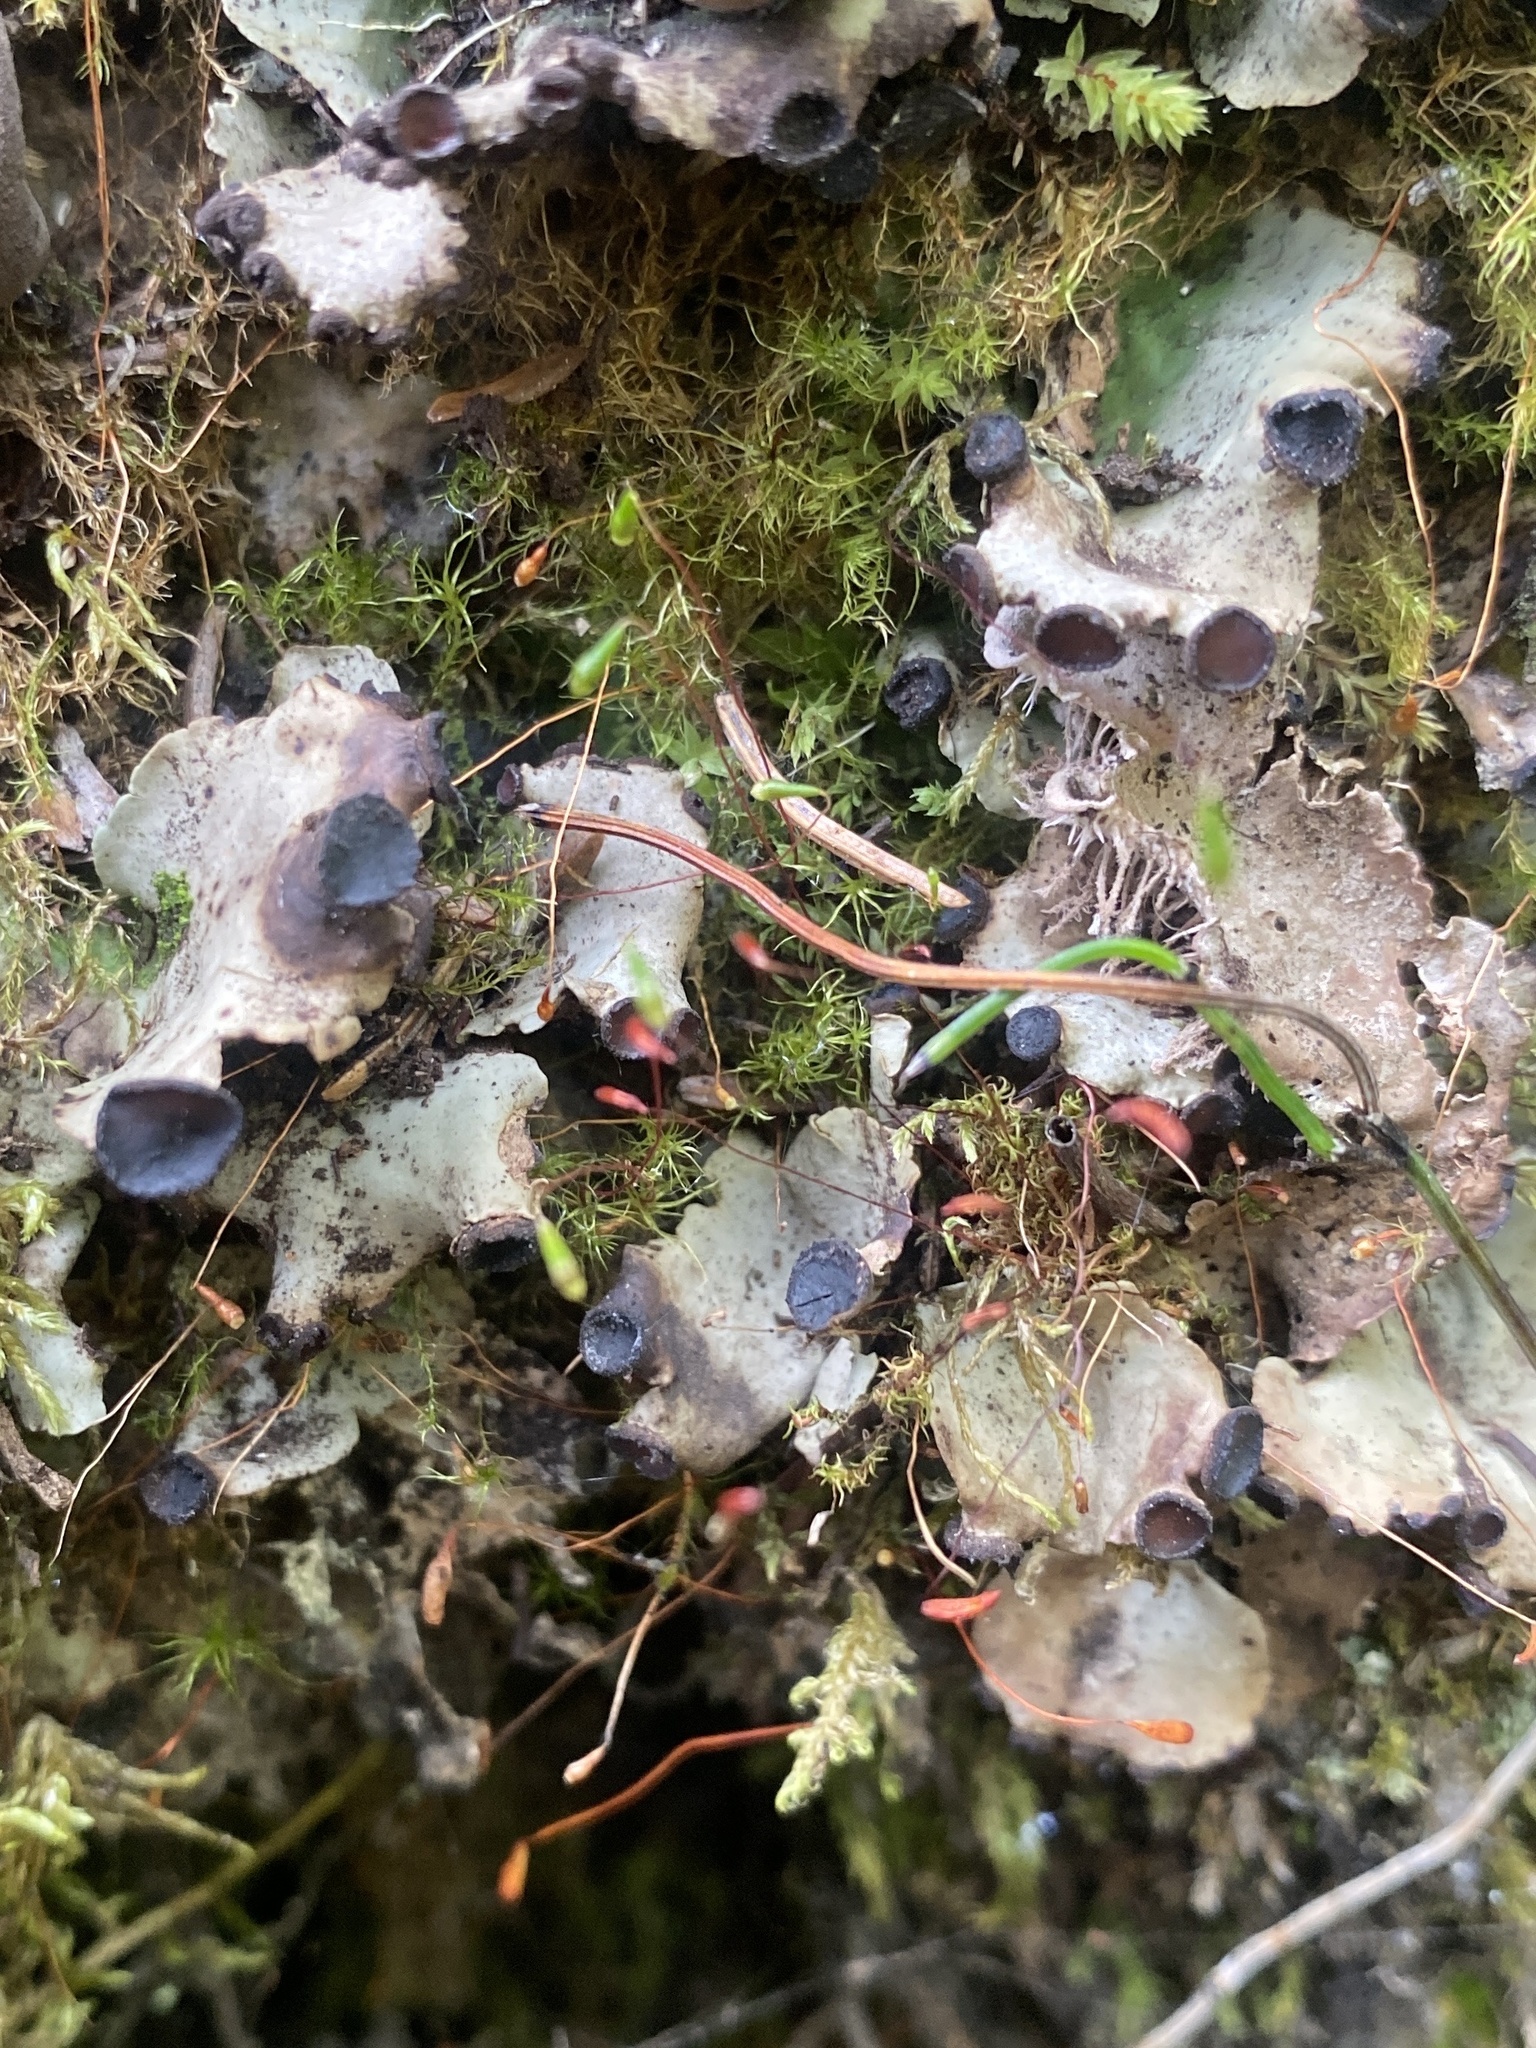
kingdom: Fungi
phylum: Ascomycota
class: Lecanoromycetes
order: Peltigerales
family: Peltigeraceae
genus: Peltigera
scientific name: Peltigera venosa
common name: Pixie gowns lichen
